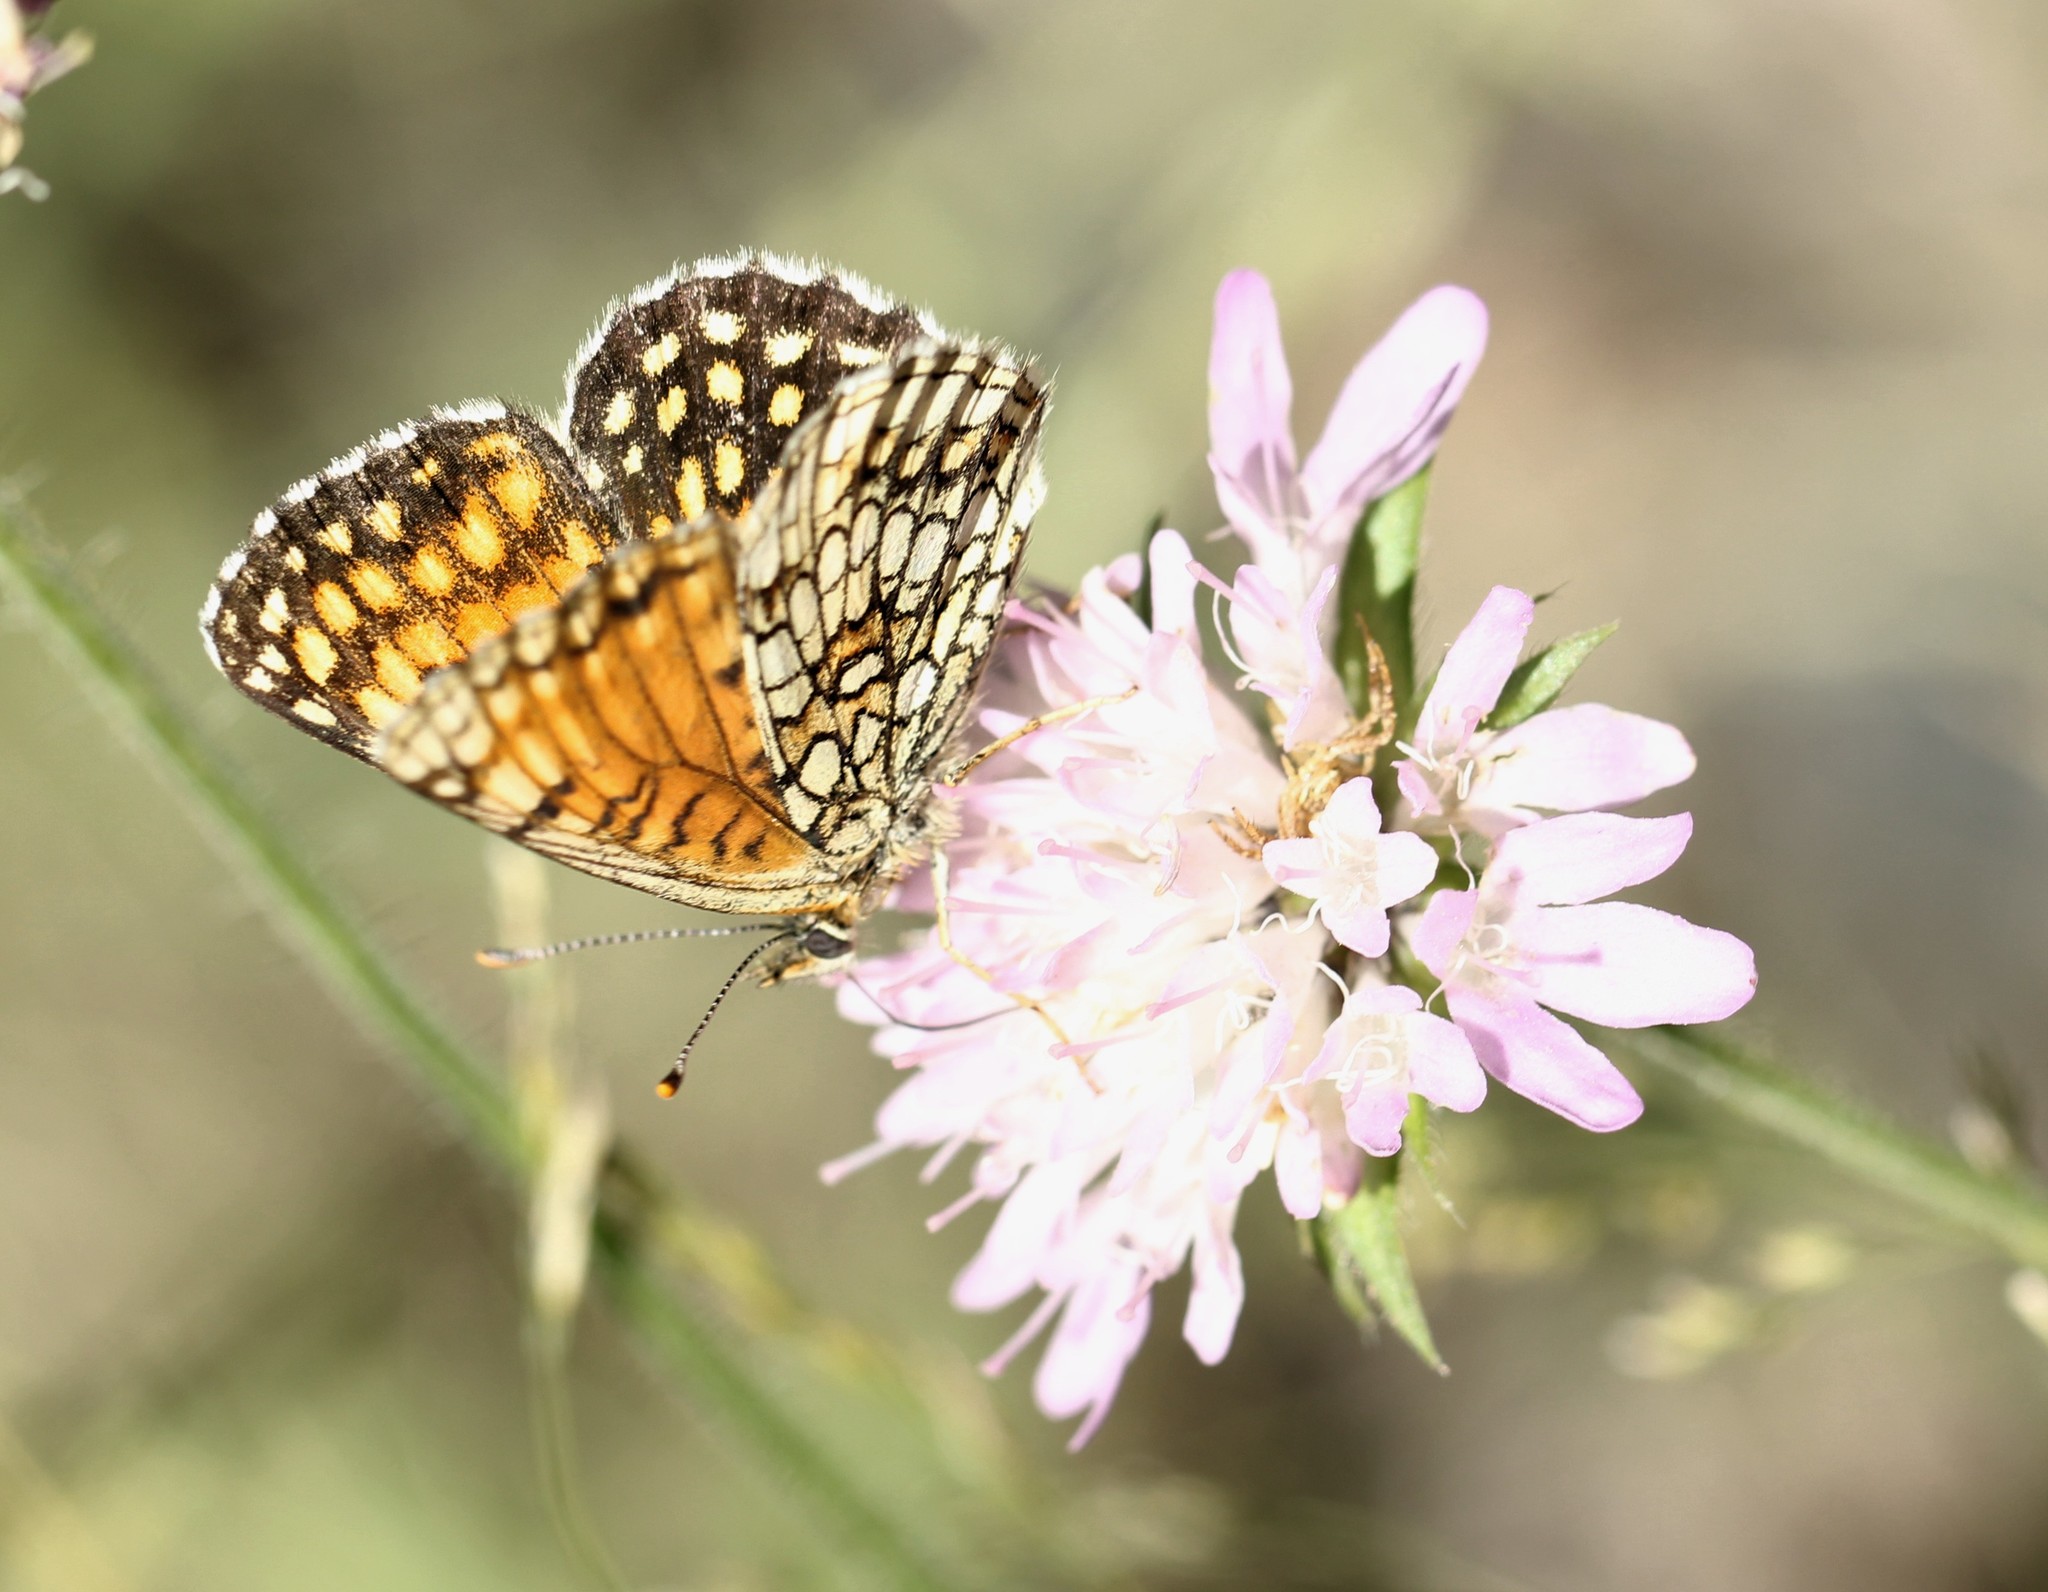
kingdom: Animalia
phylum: Arthropoda
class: Insecta
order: Lepidoptera
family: Nymphalidae
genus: Melitaea
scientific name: Melitaea diamina
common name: False heath fritillary
